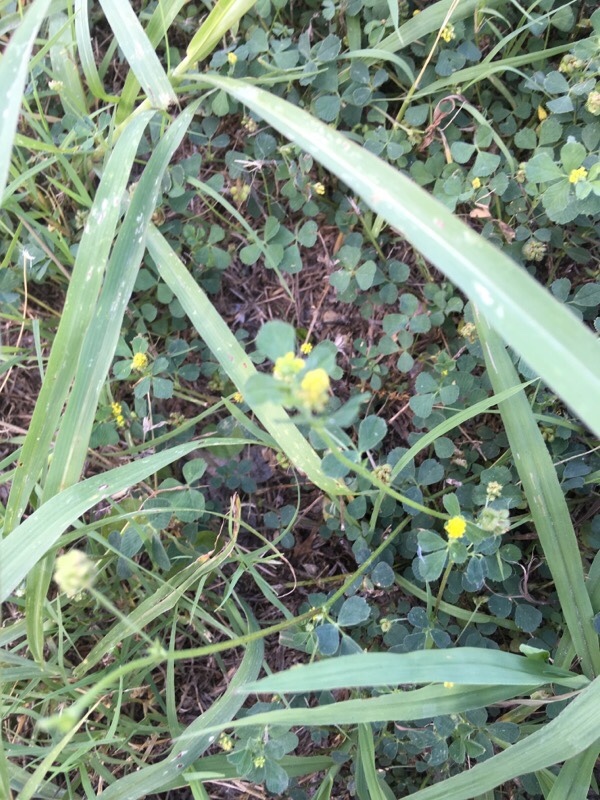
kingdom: Plantae
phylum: Tracheophyta
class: Magnoliopsida
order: Fabales
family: Fabaceae
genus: Medicago
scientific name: Medicago lupulina
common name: Black medick
